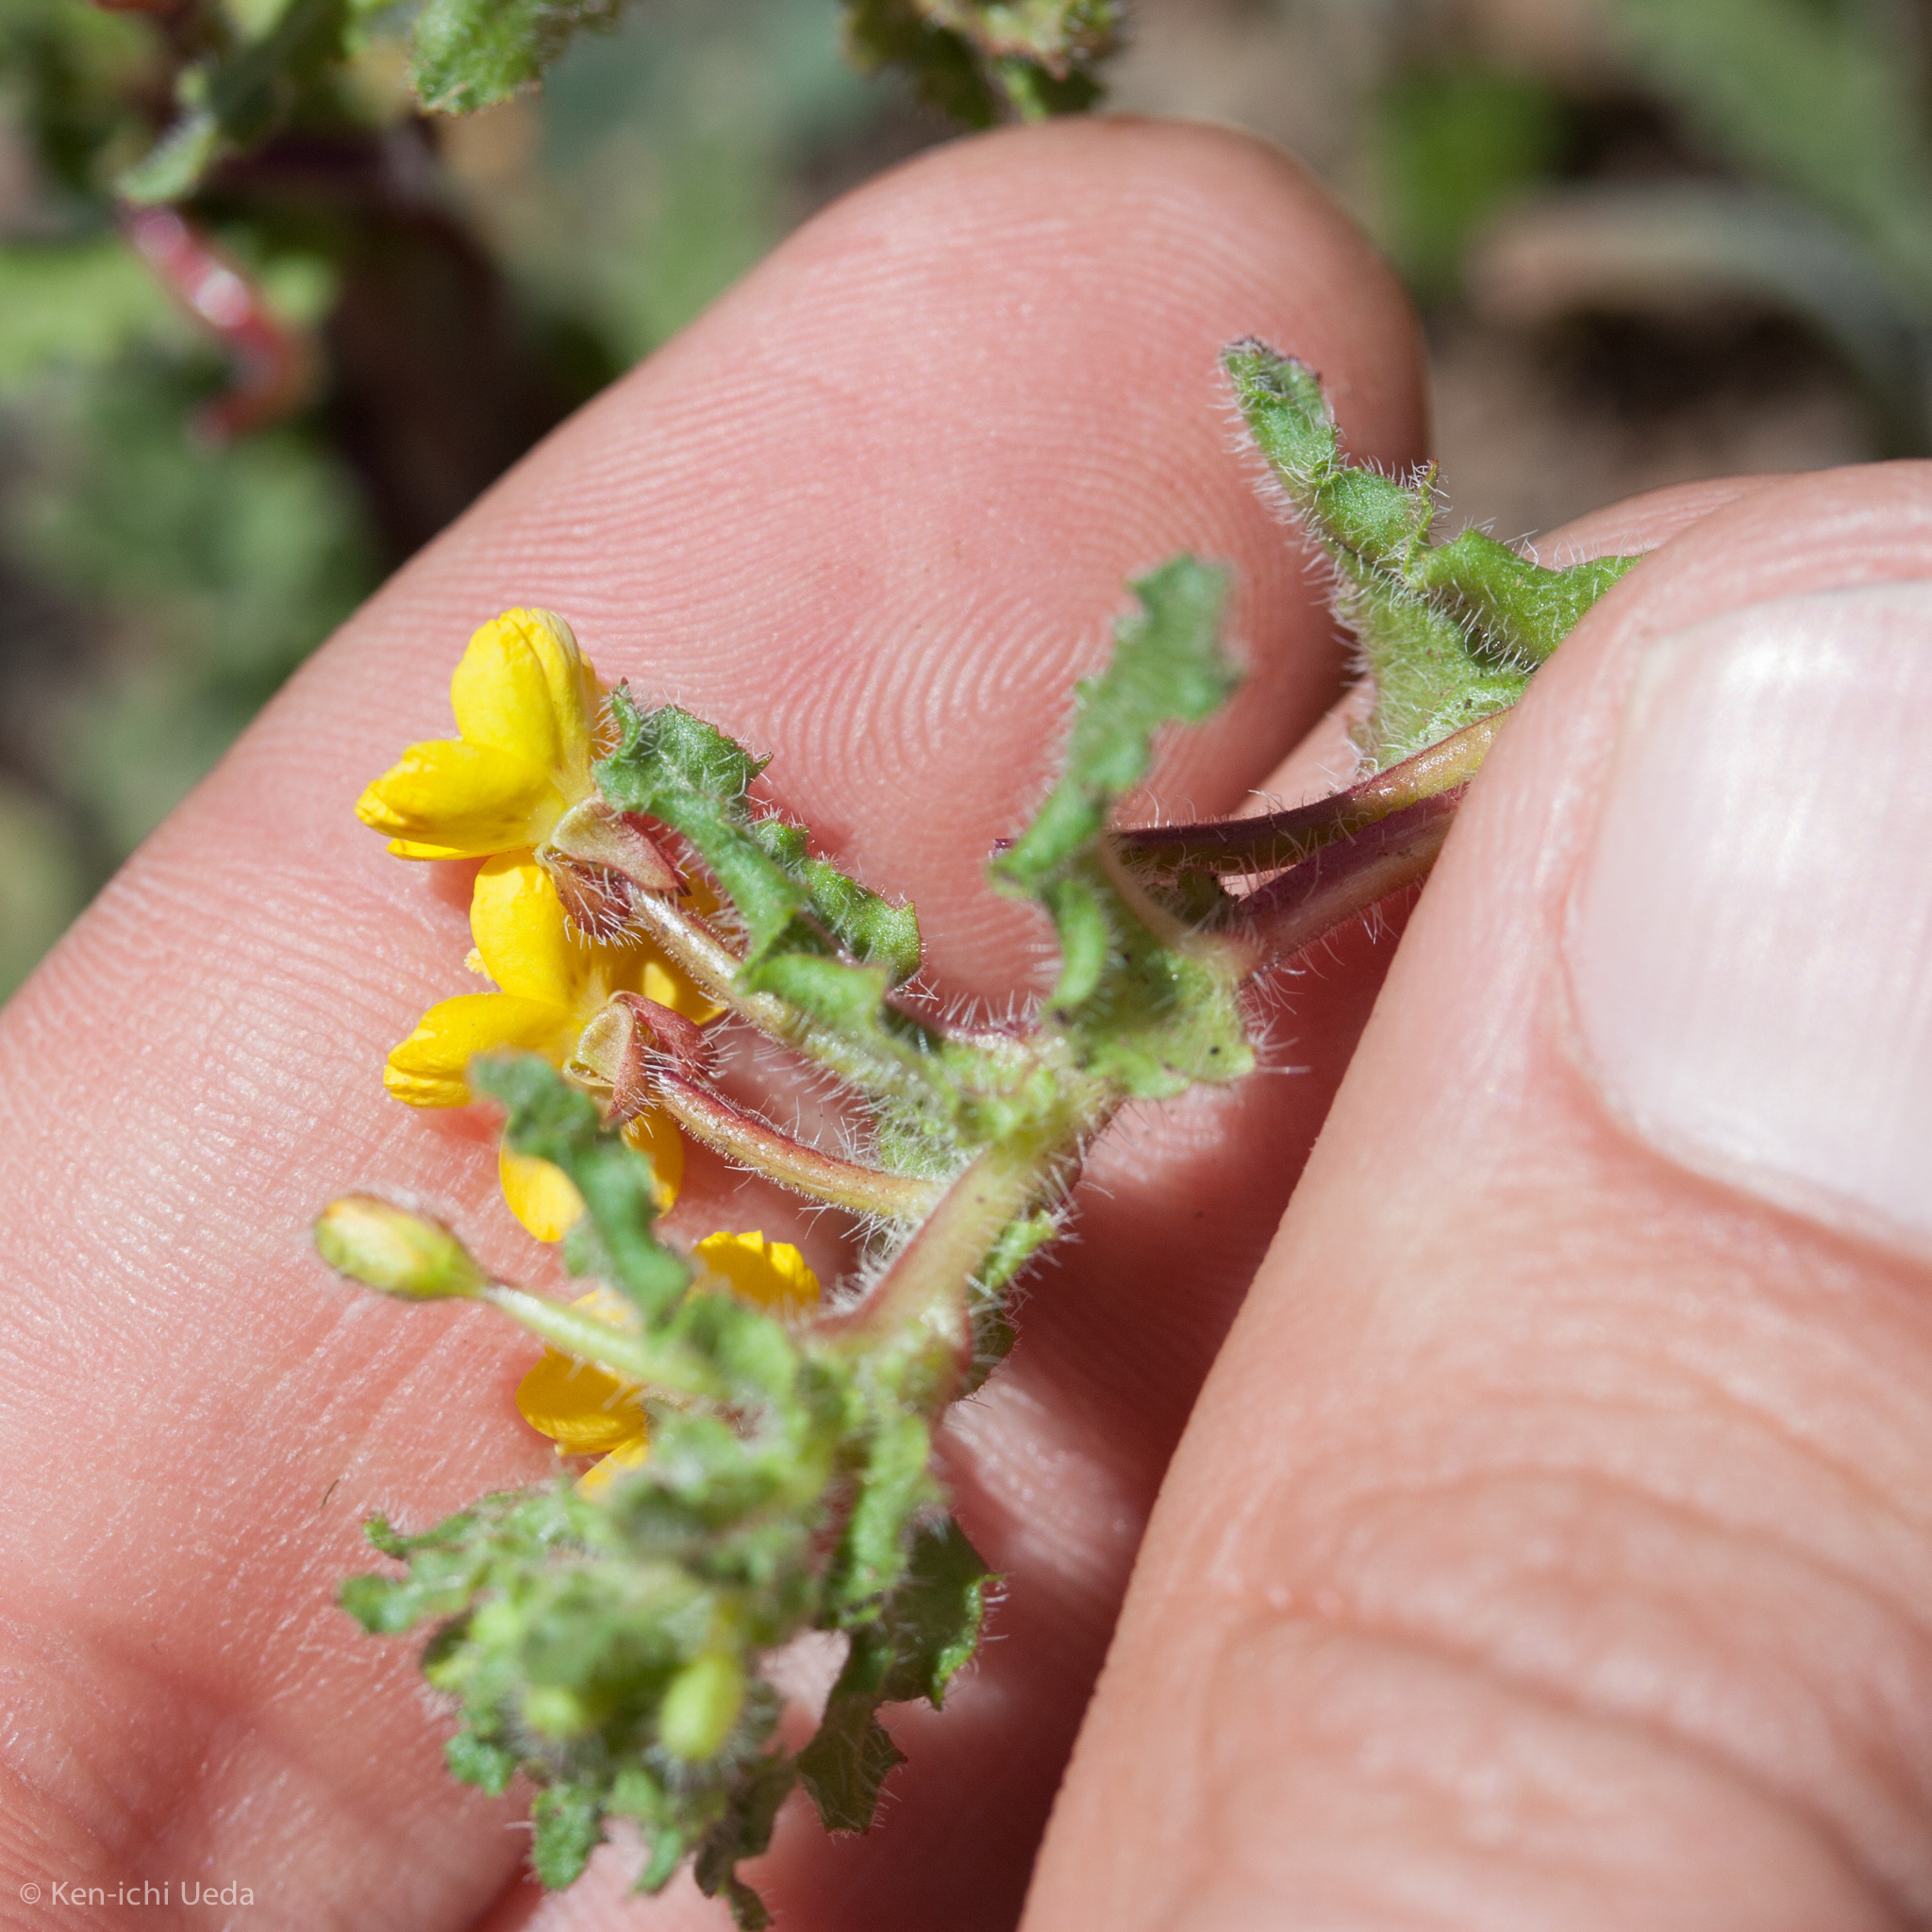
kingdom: Plantae
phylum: Tracheophyta
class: Magnoliopsida
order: Myrtales
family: Onagraceae
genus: Camissoniopsis
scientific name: Camissoniopsis intermedia
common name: Intermediate suncup
